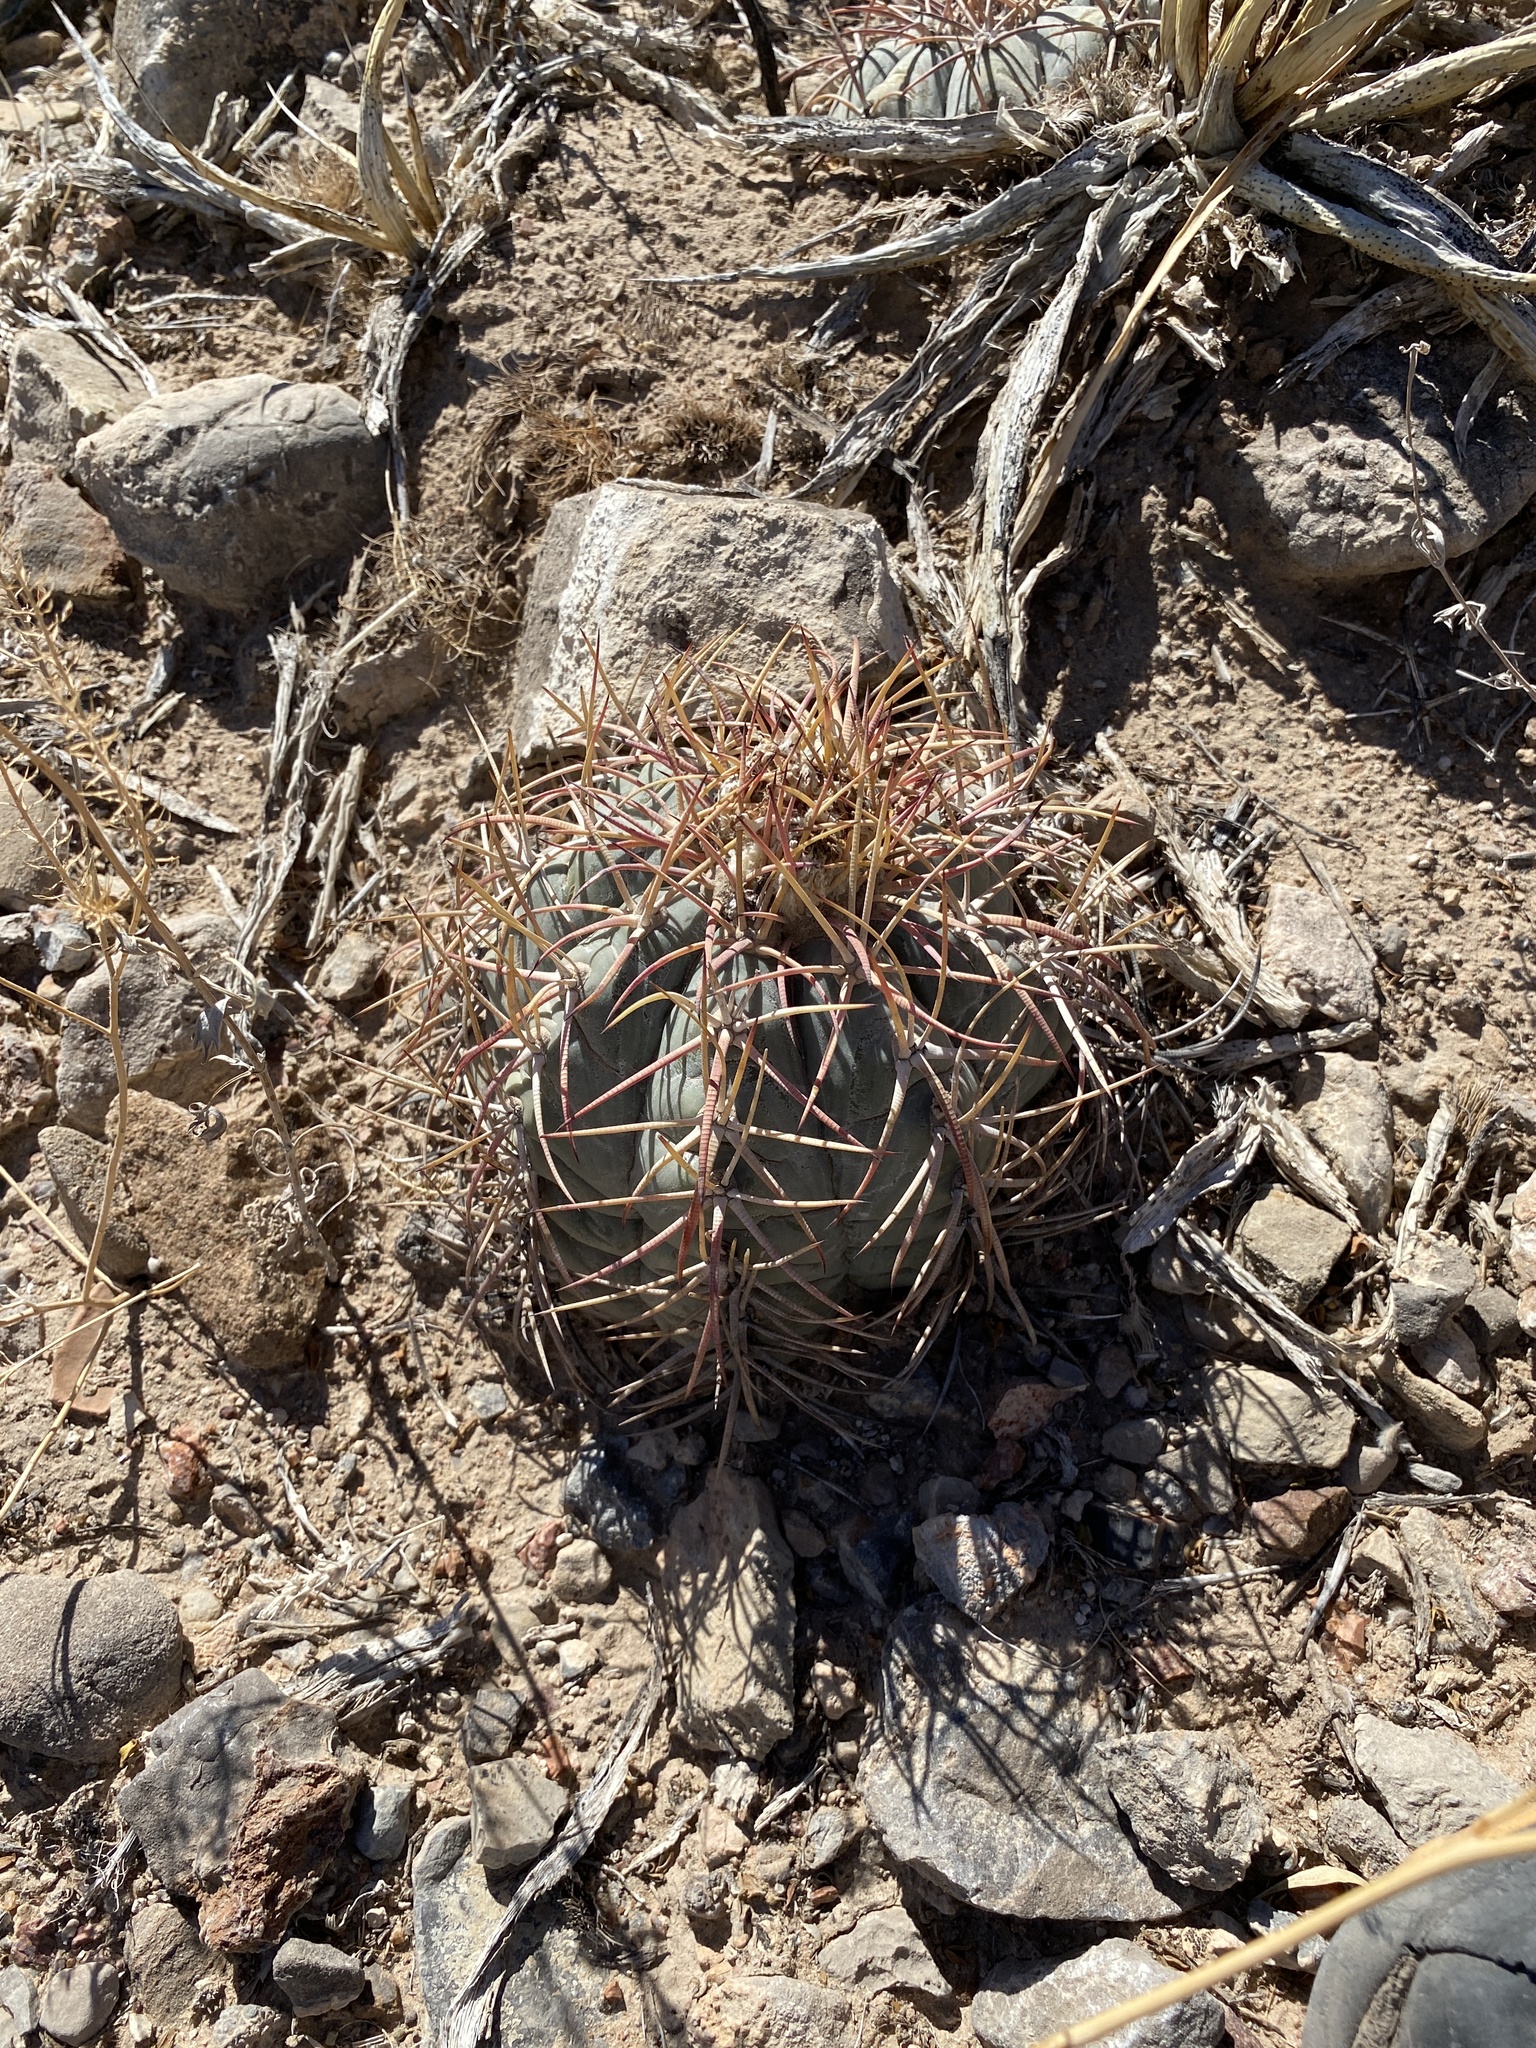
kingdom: Plantae
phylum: Tracheophyta
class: Magnoliopsida
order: Caryophyllales
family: Cactaceae
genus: Echinocactus
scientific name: Echinocactus horizonthalonius
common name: Devilshead
